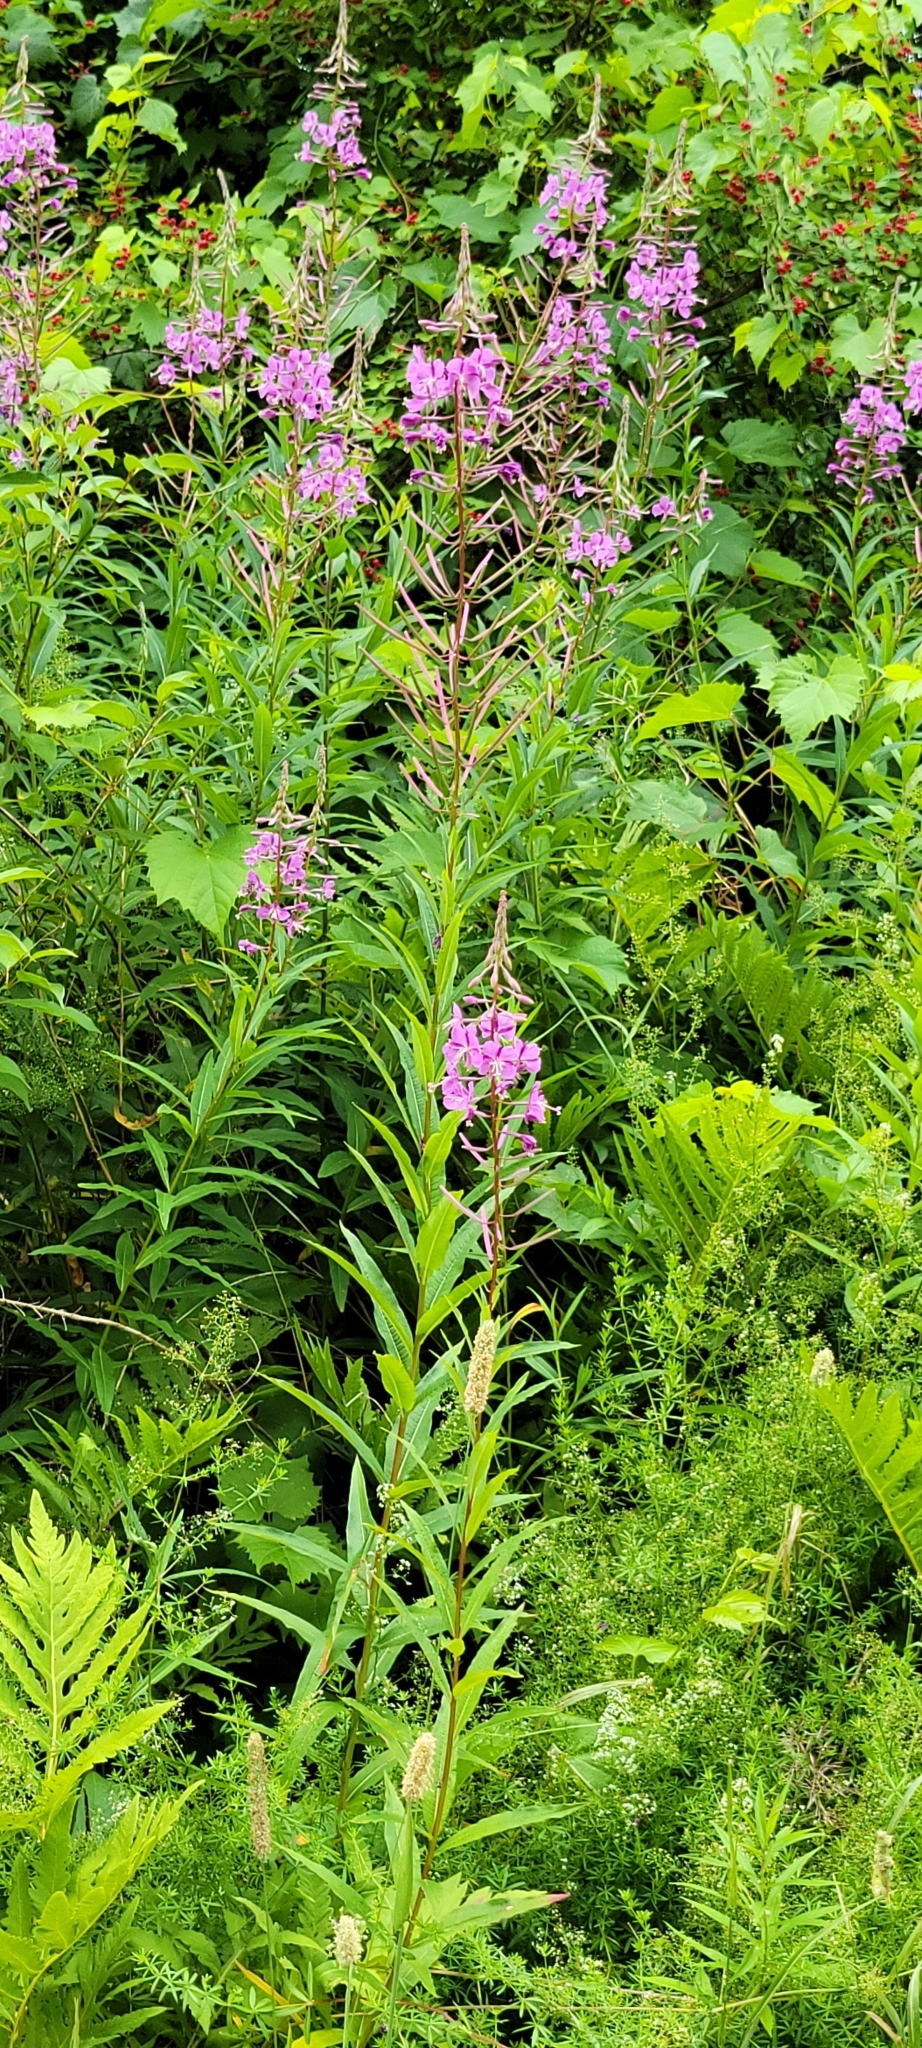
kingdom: Plantae
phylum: Tracheophyta
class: Magnoliopsida
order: Myrtales
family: Onagraceae
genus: Chamaenerion
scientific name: Chamaenerion angustifolium
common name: Fireweed
